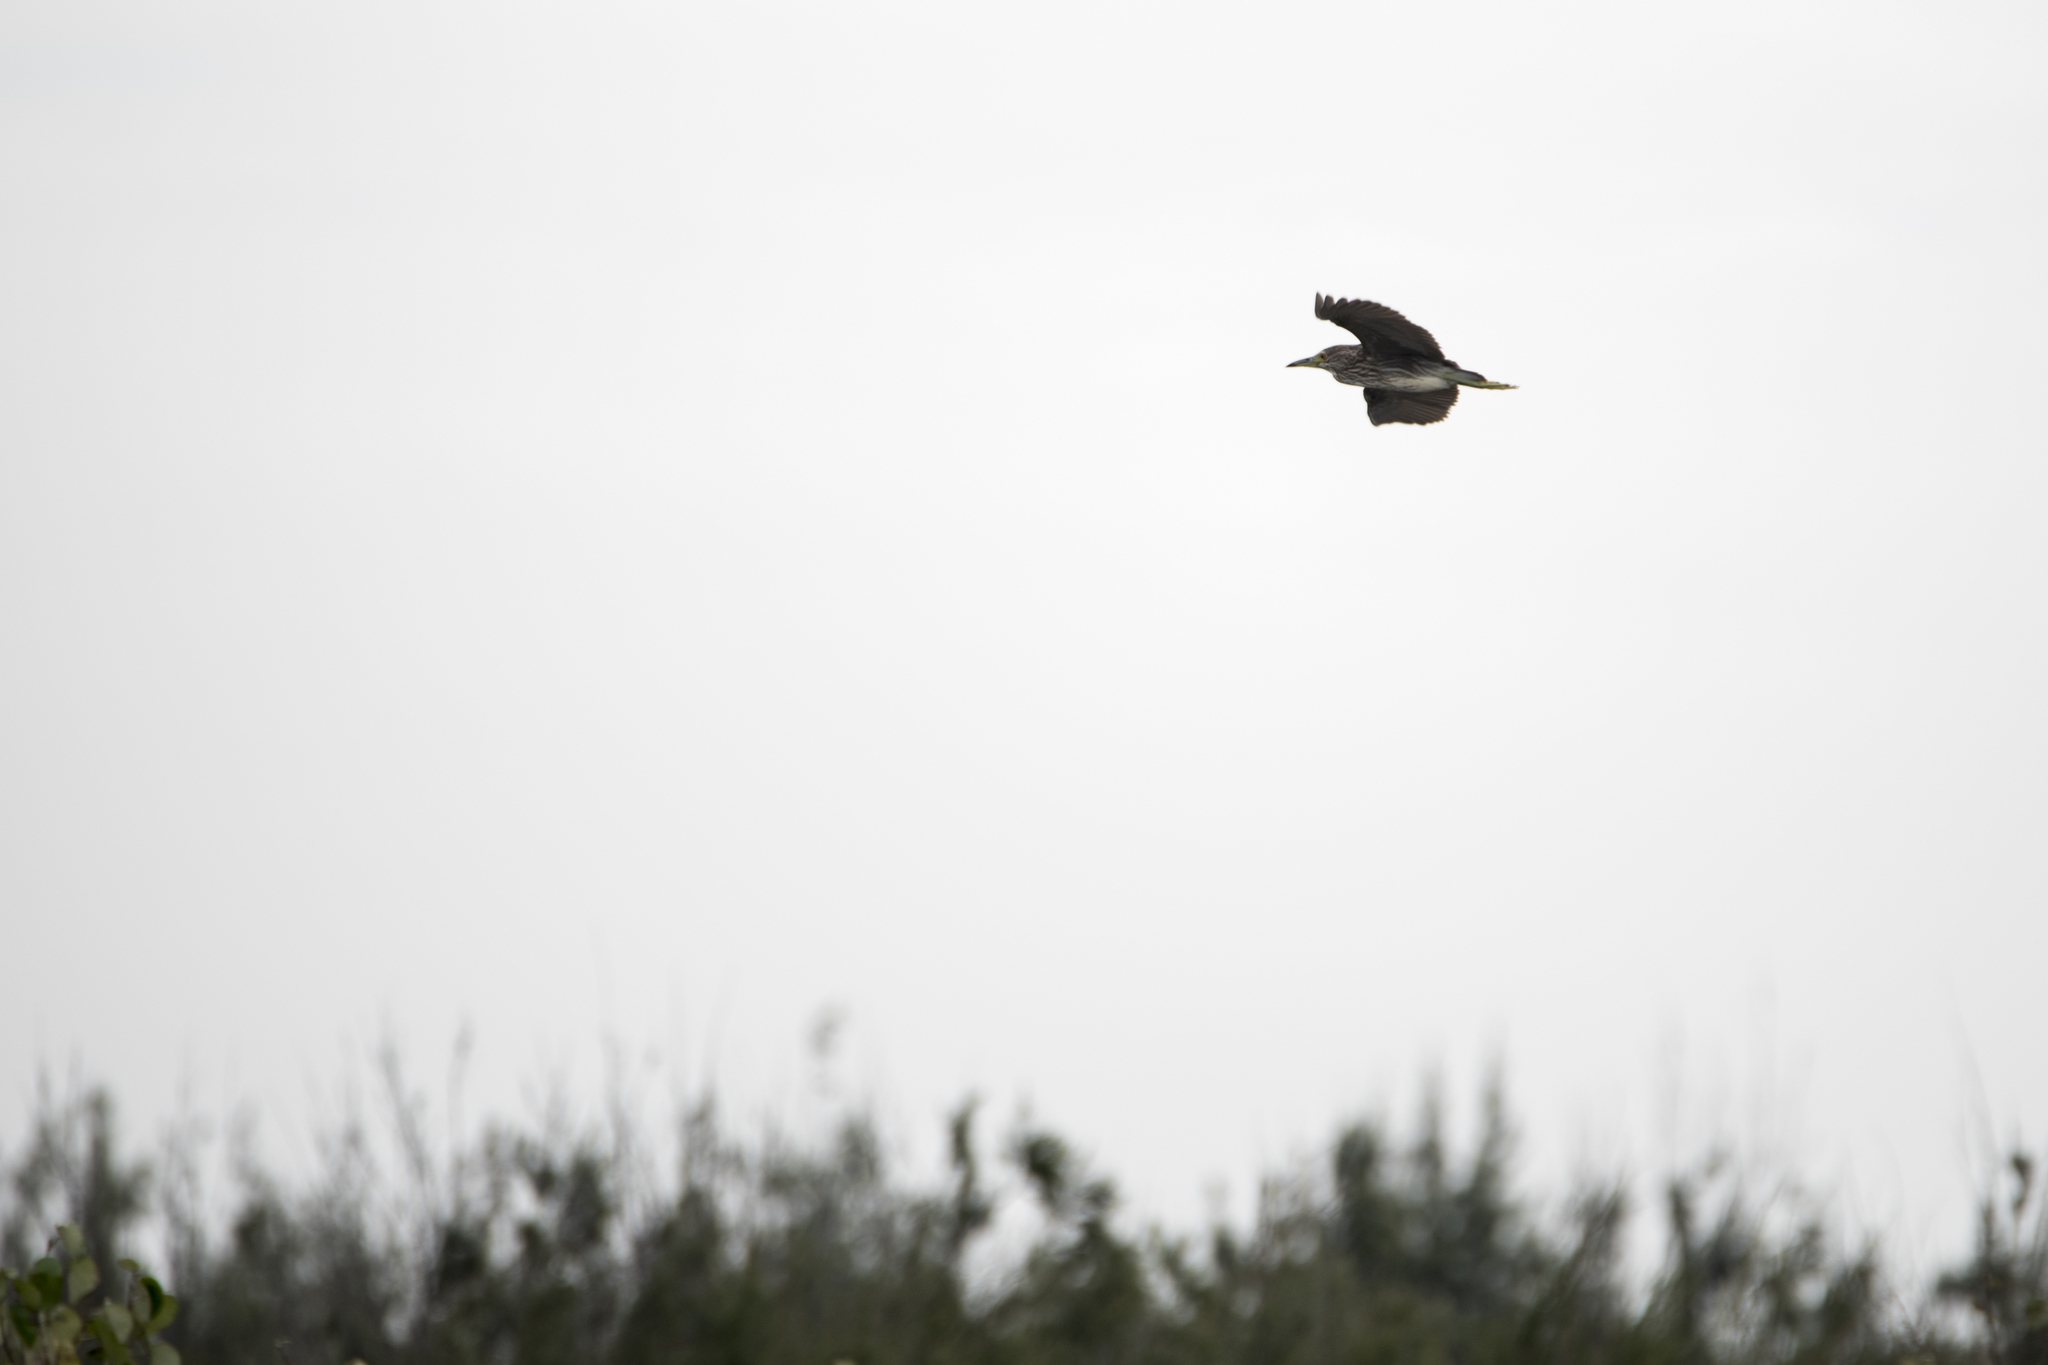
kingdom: Animalia
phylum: Chordata
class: Aves
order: Pelecaniformes
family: Ardeidae
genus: Nycticorax
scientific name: Nycticorax nycticorax
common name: Black-crowned night heron
